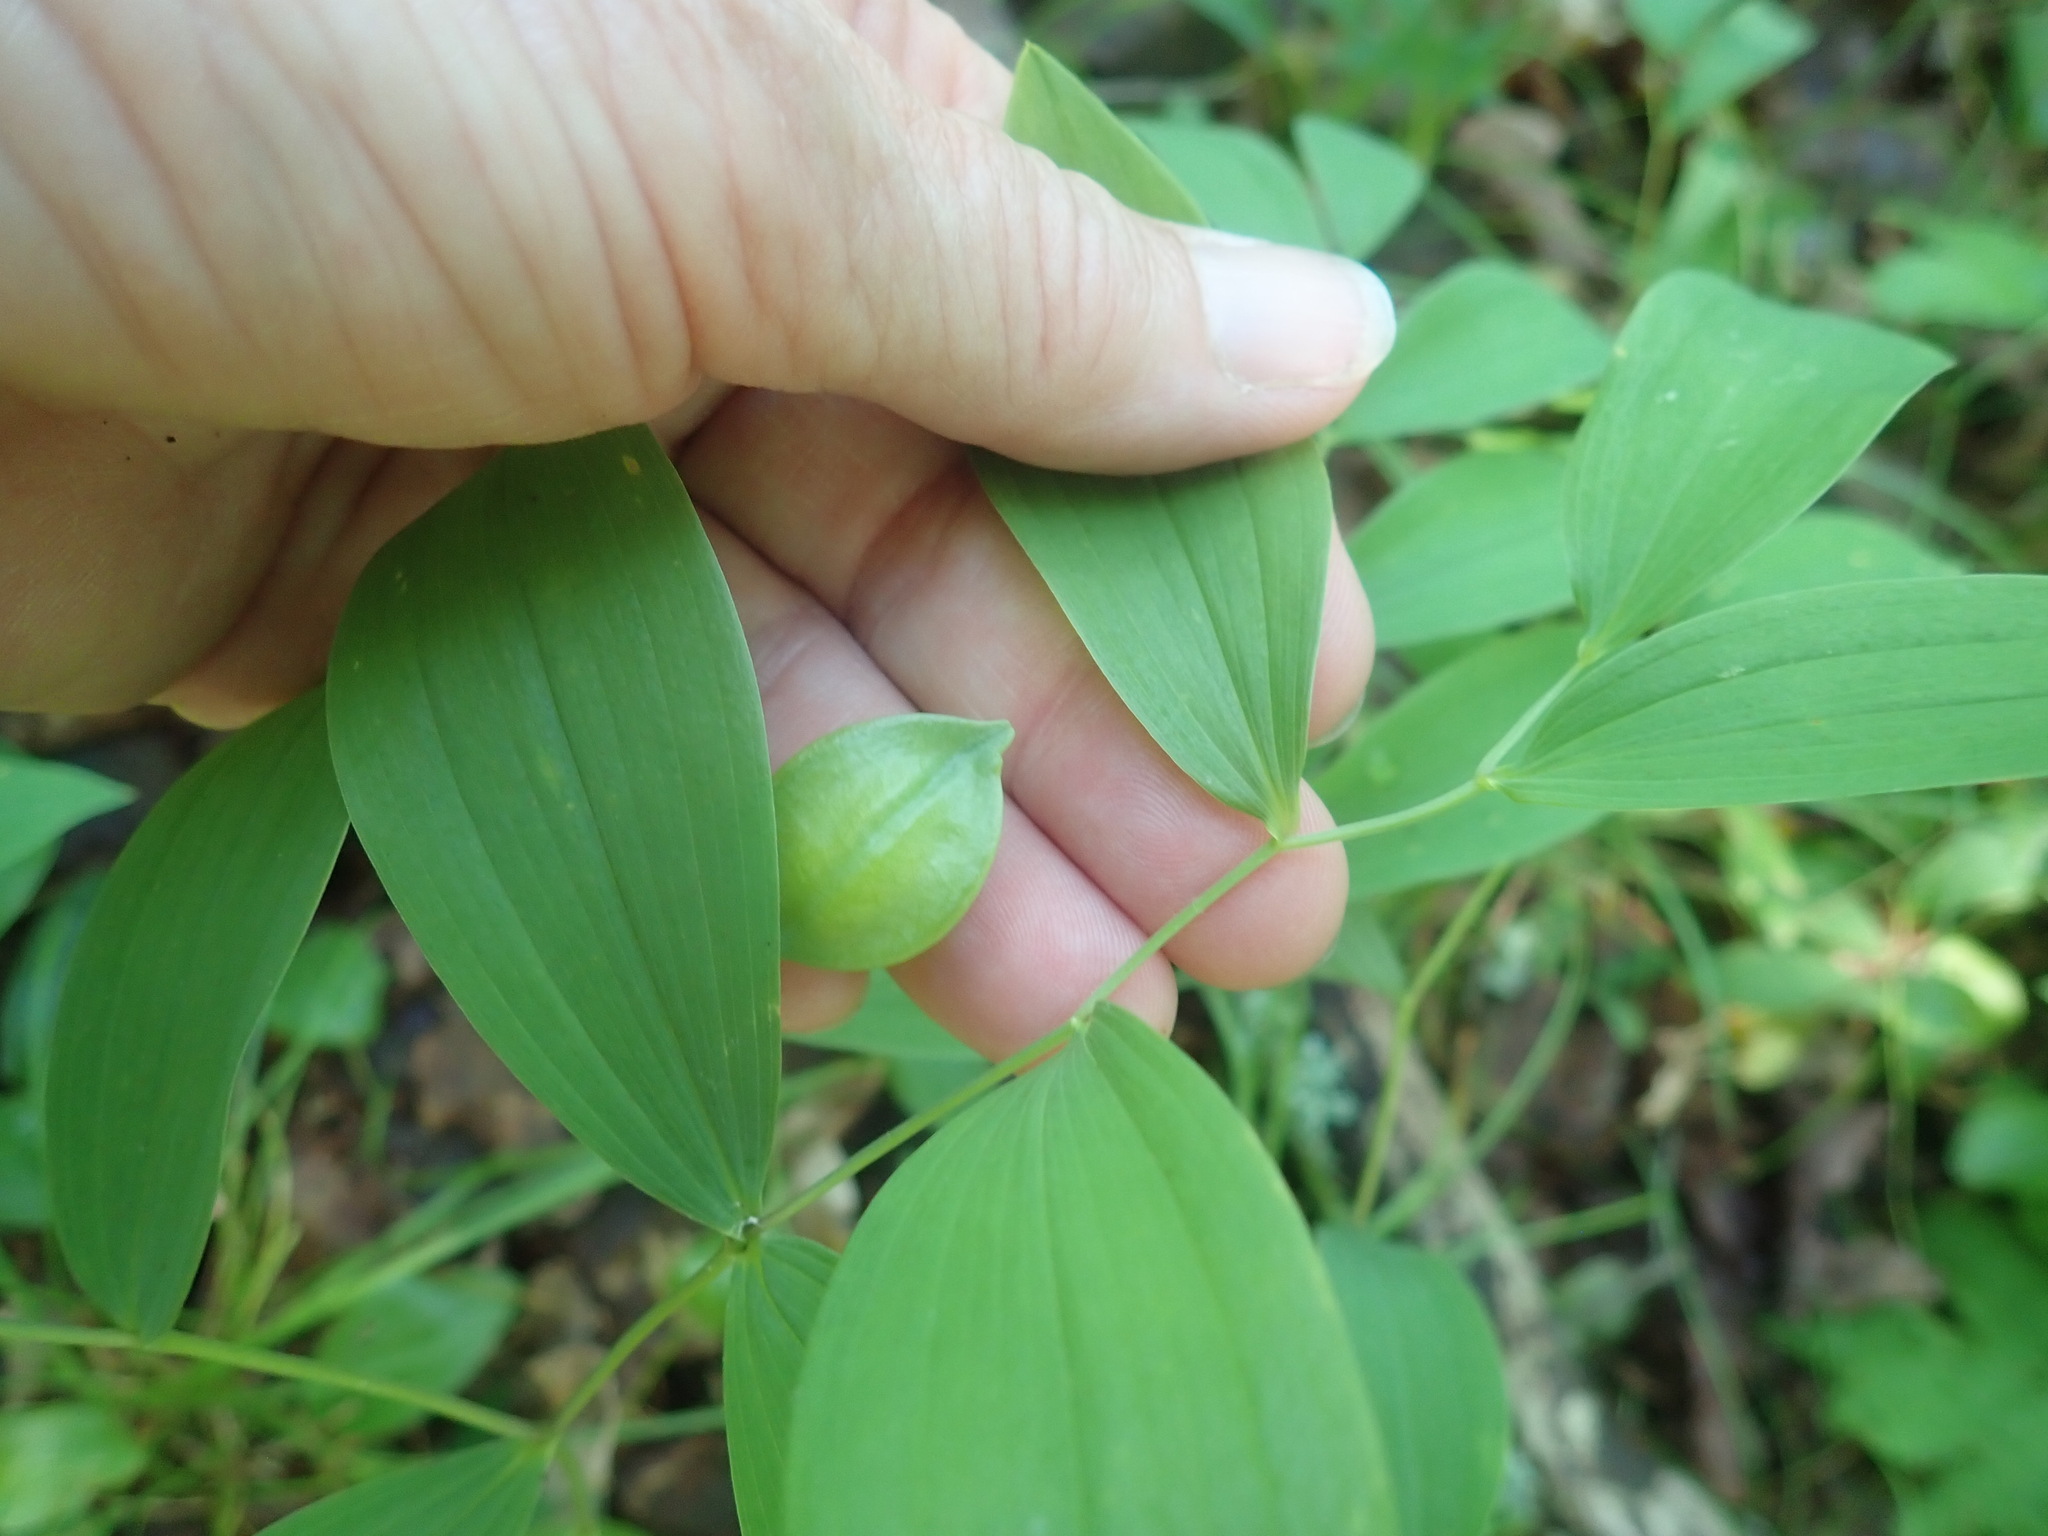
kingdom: Plantae
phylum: Tracheophyta
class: Liliopsida
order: Liliales
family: Colchicaceae
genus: Uvularia
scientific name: Uvularia sessilifolia
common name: Straw-lily
